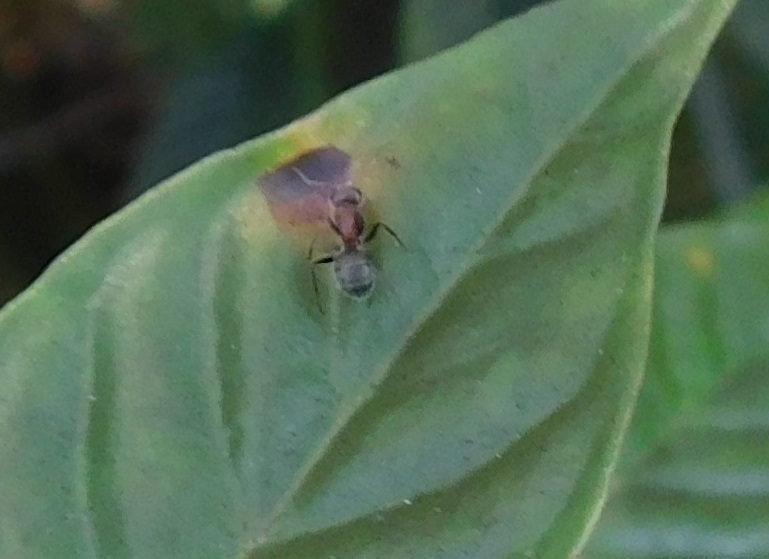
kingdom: Animalia
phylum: Arthropoda
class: Insecta
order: Hymenoptera
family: Formicidae
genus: Camponotus
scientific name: Camponotus planatus
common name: Compact carpenter ant
